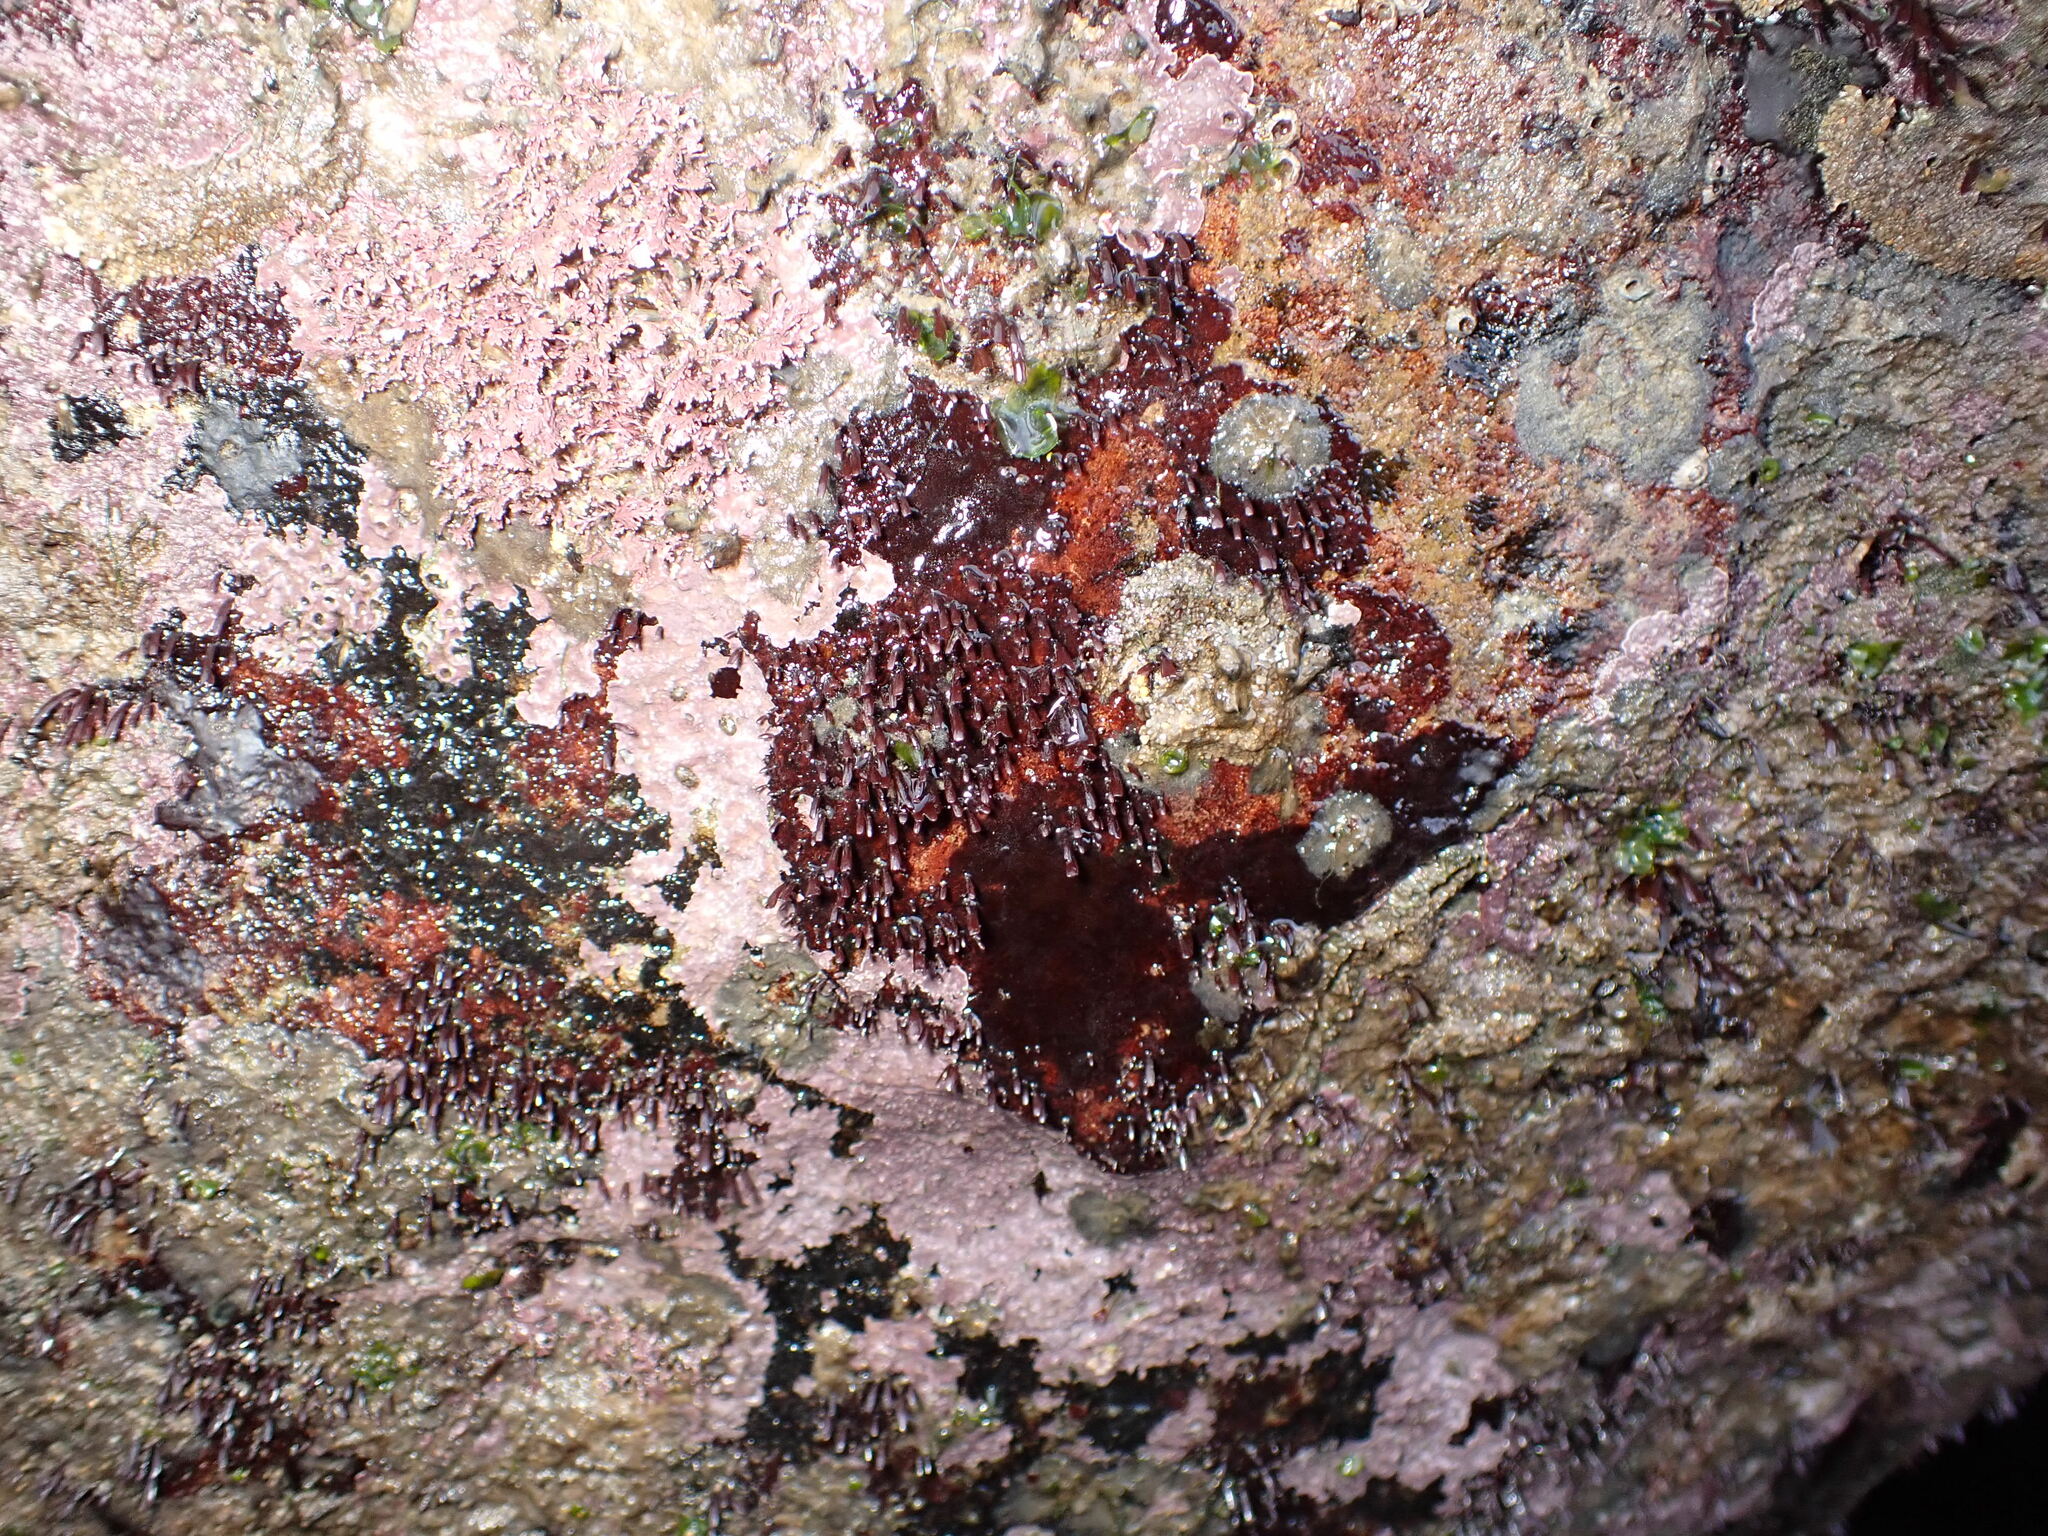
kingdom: Plantae
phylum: Rhodophyta
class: Florideophyceae
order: Gigartinales
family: Phyllophoraceae
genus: Mastocarpus
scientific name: Mastocarpus stellatus
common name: False irish moss
